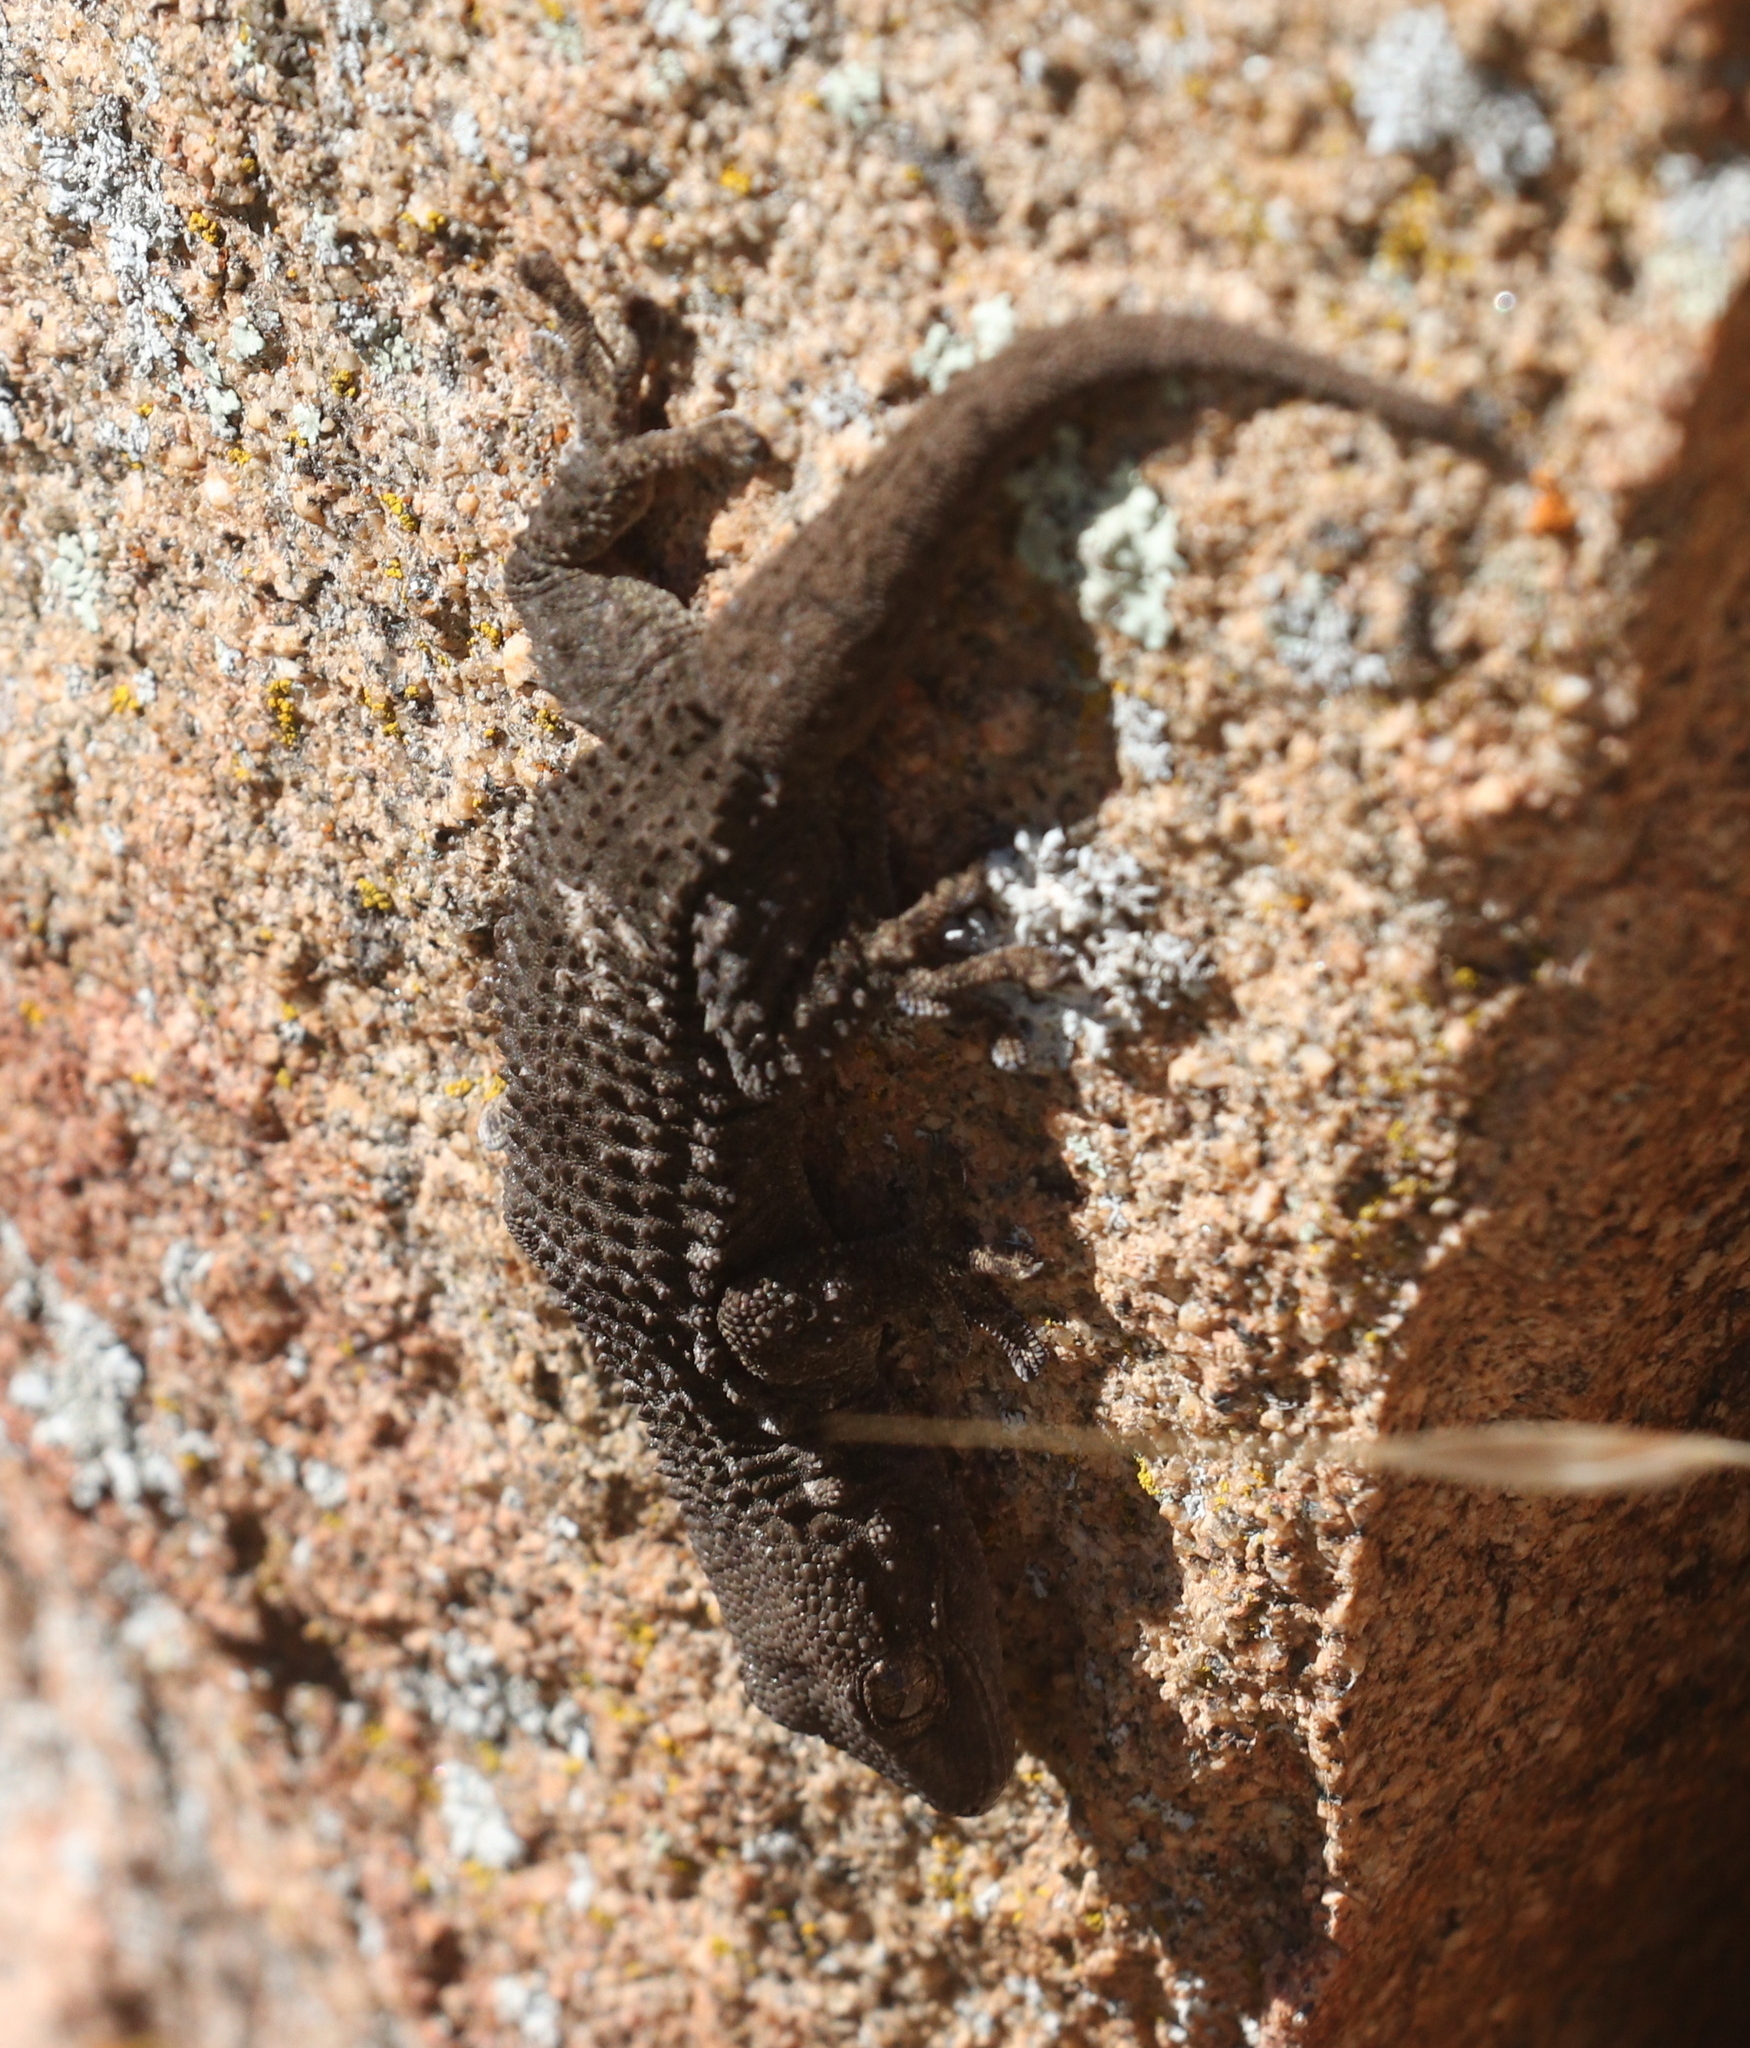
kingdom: Animalia
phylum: Chordata
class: Squamata
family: Phyllodactylidae
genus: Tarentola
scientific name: Tarentola mauritanica
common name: Moorish gecko
